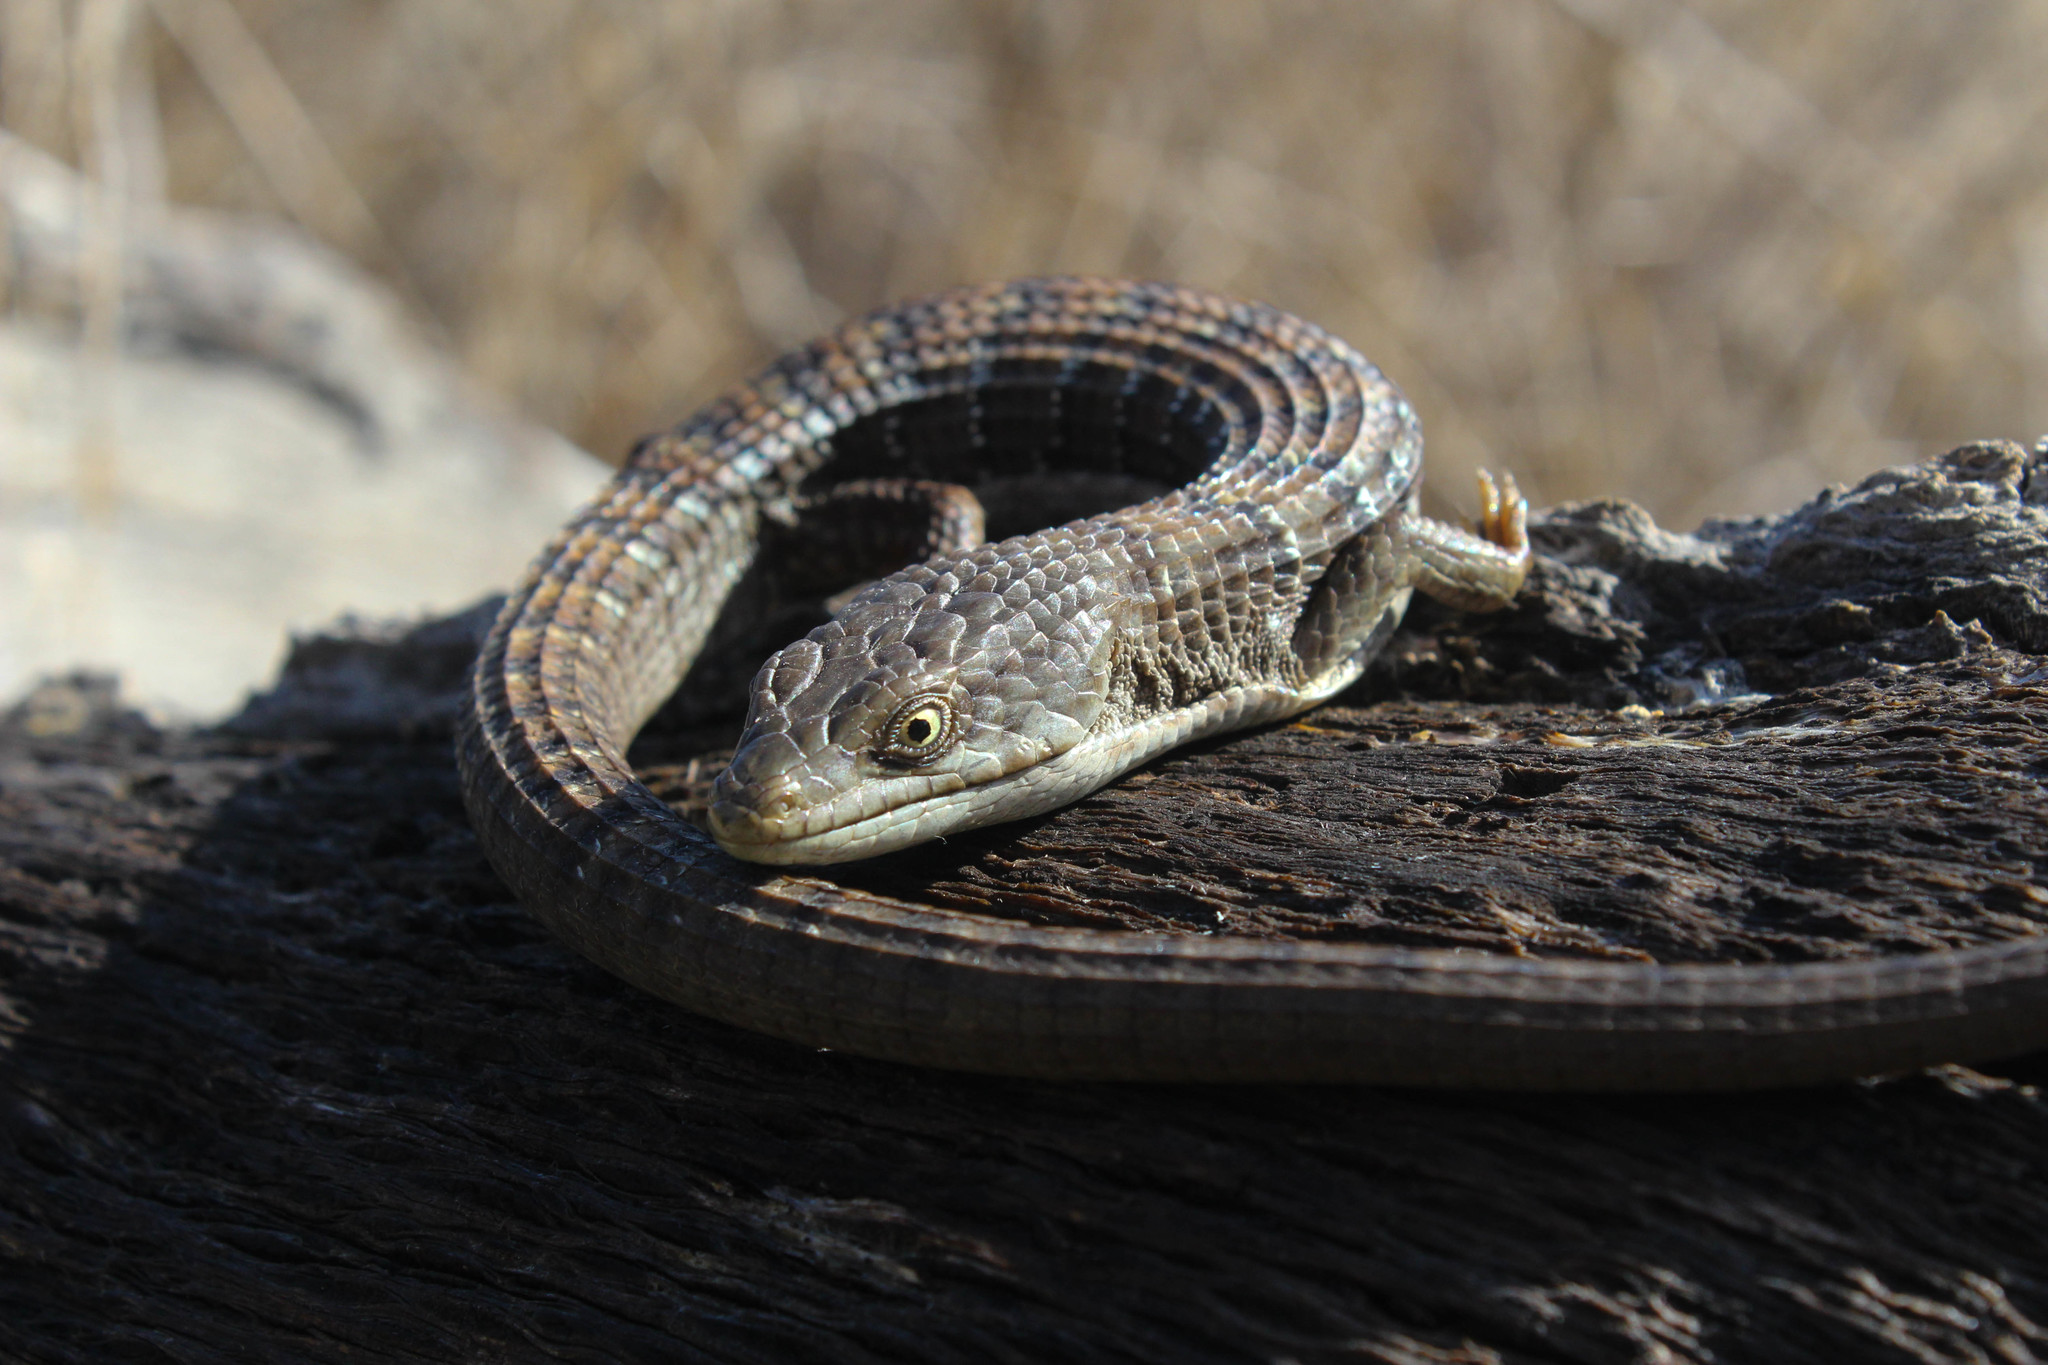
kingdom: Animalia
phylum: Chordata
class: Squamata
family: Anguidae
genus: Elgaria
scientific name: Elgaria multicarinata
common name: Southern alligator lizard
